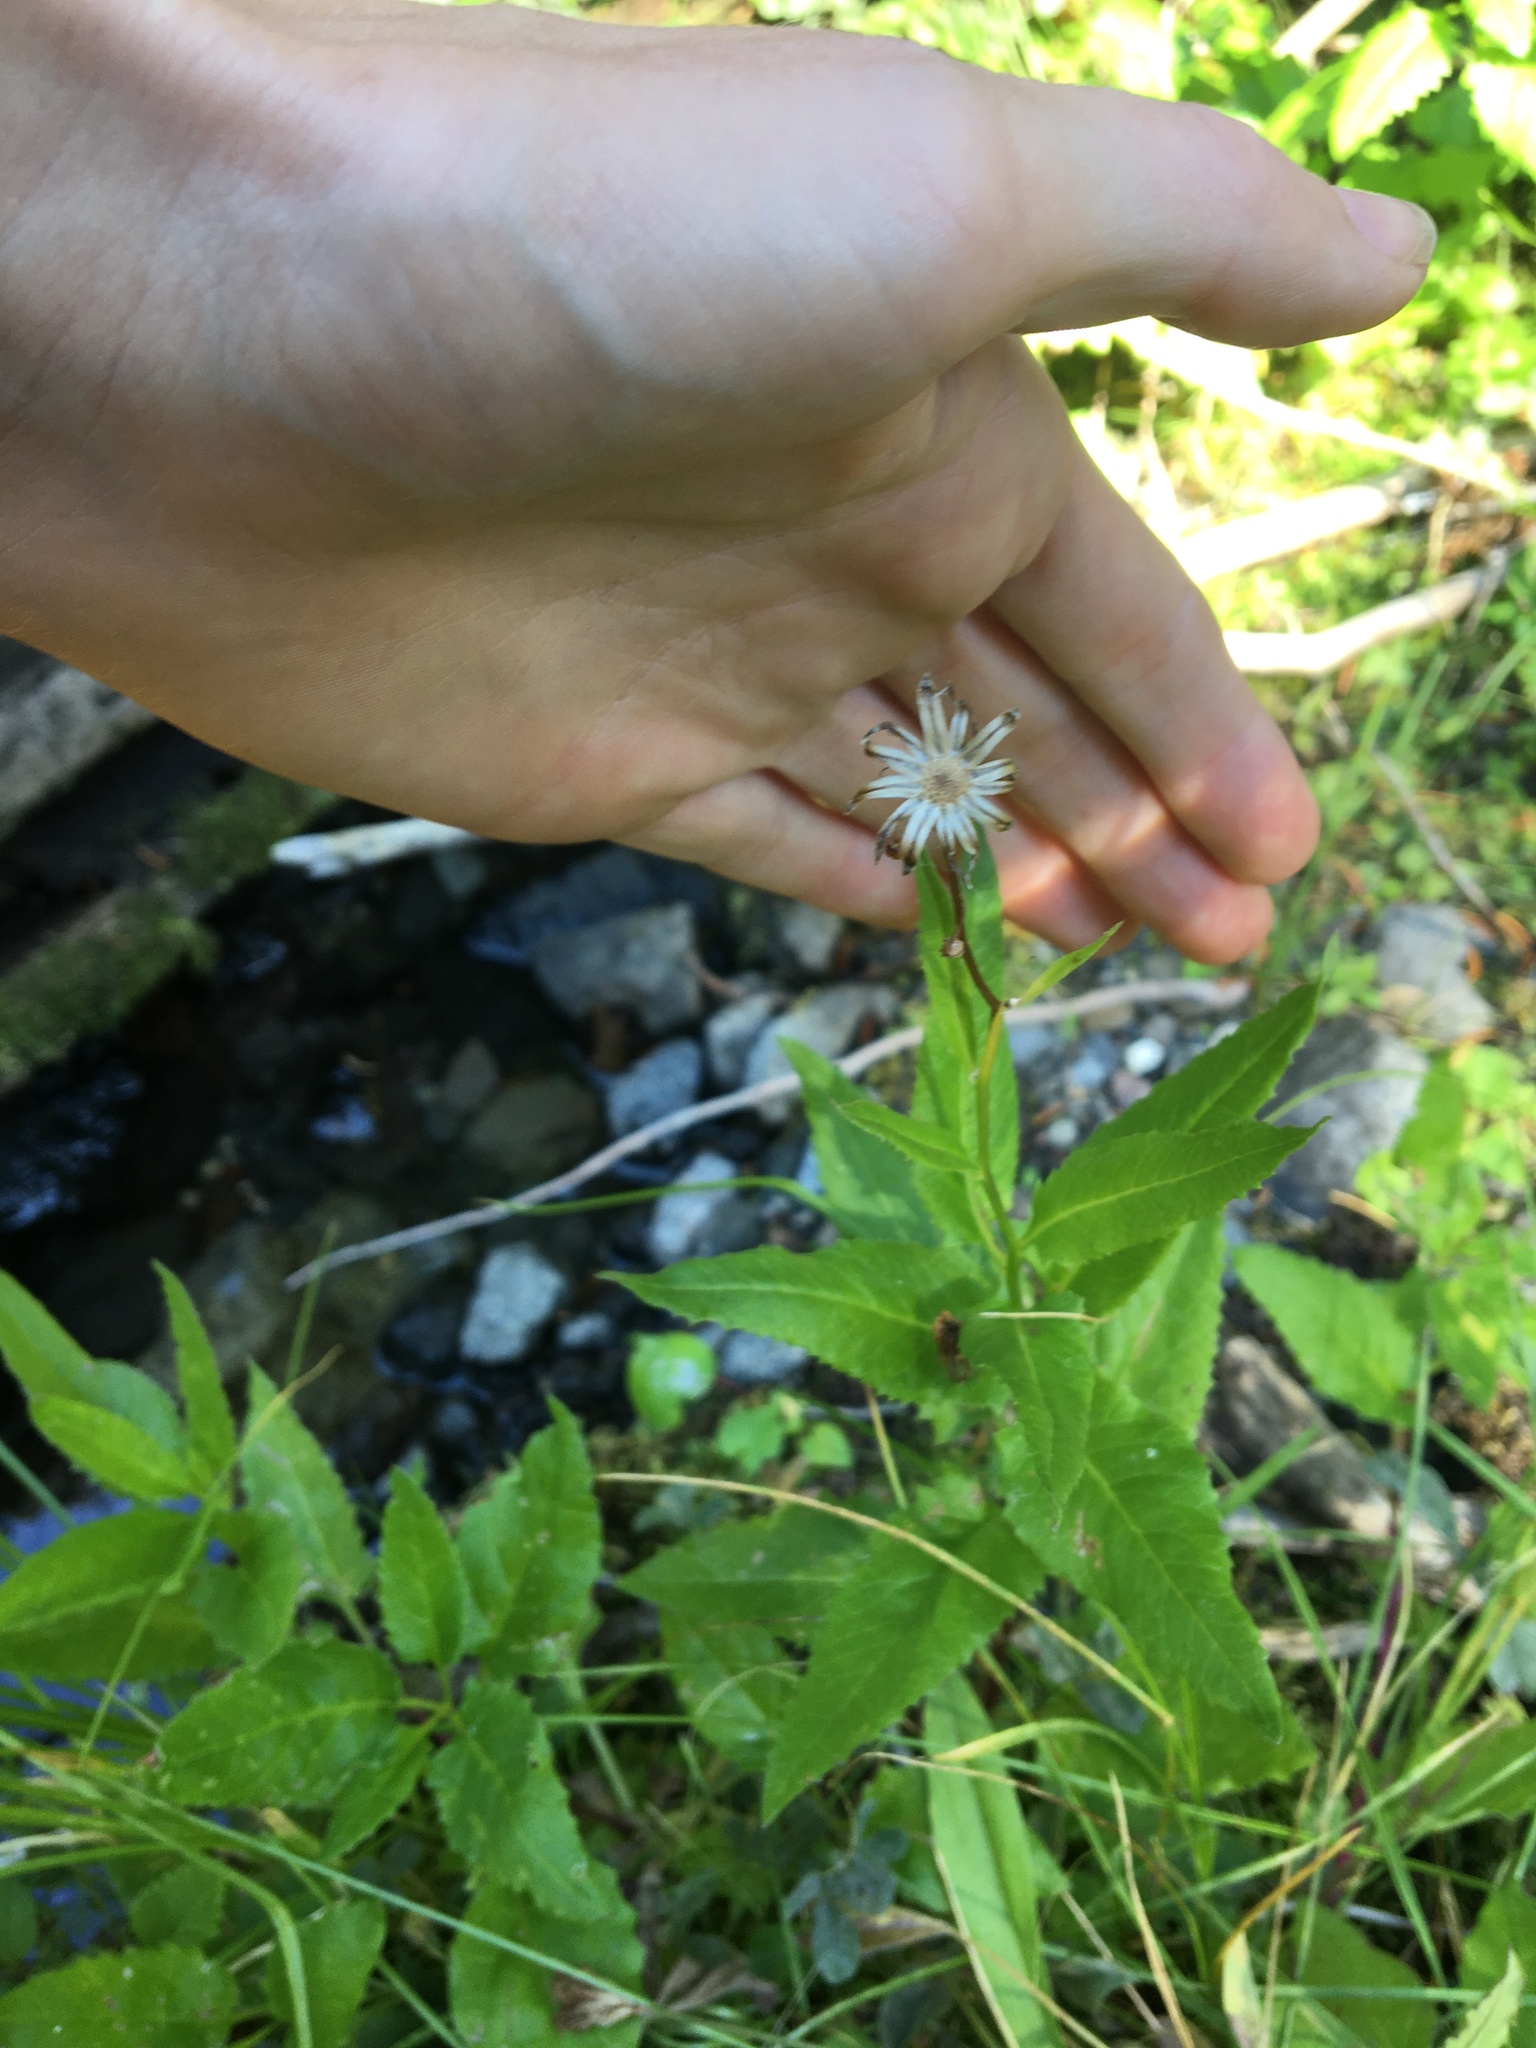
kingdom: Plantae
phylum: Tracheophyta
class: Magnoliopsida
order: Asterales
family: Asteraceae
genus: Senecio
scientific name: Senecio triangularis
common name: Arrowleaf butterweed
